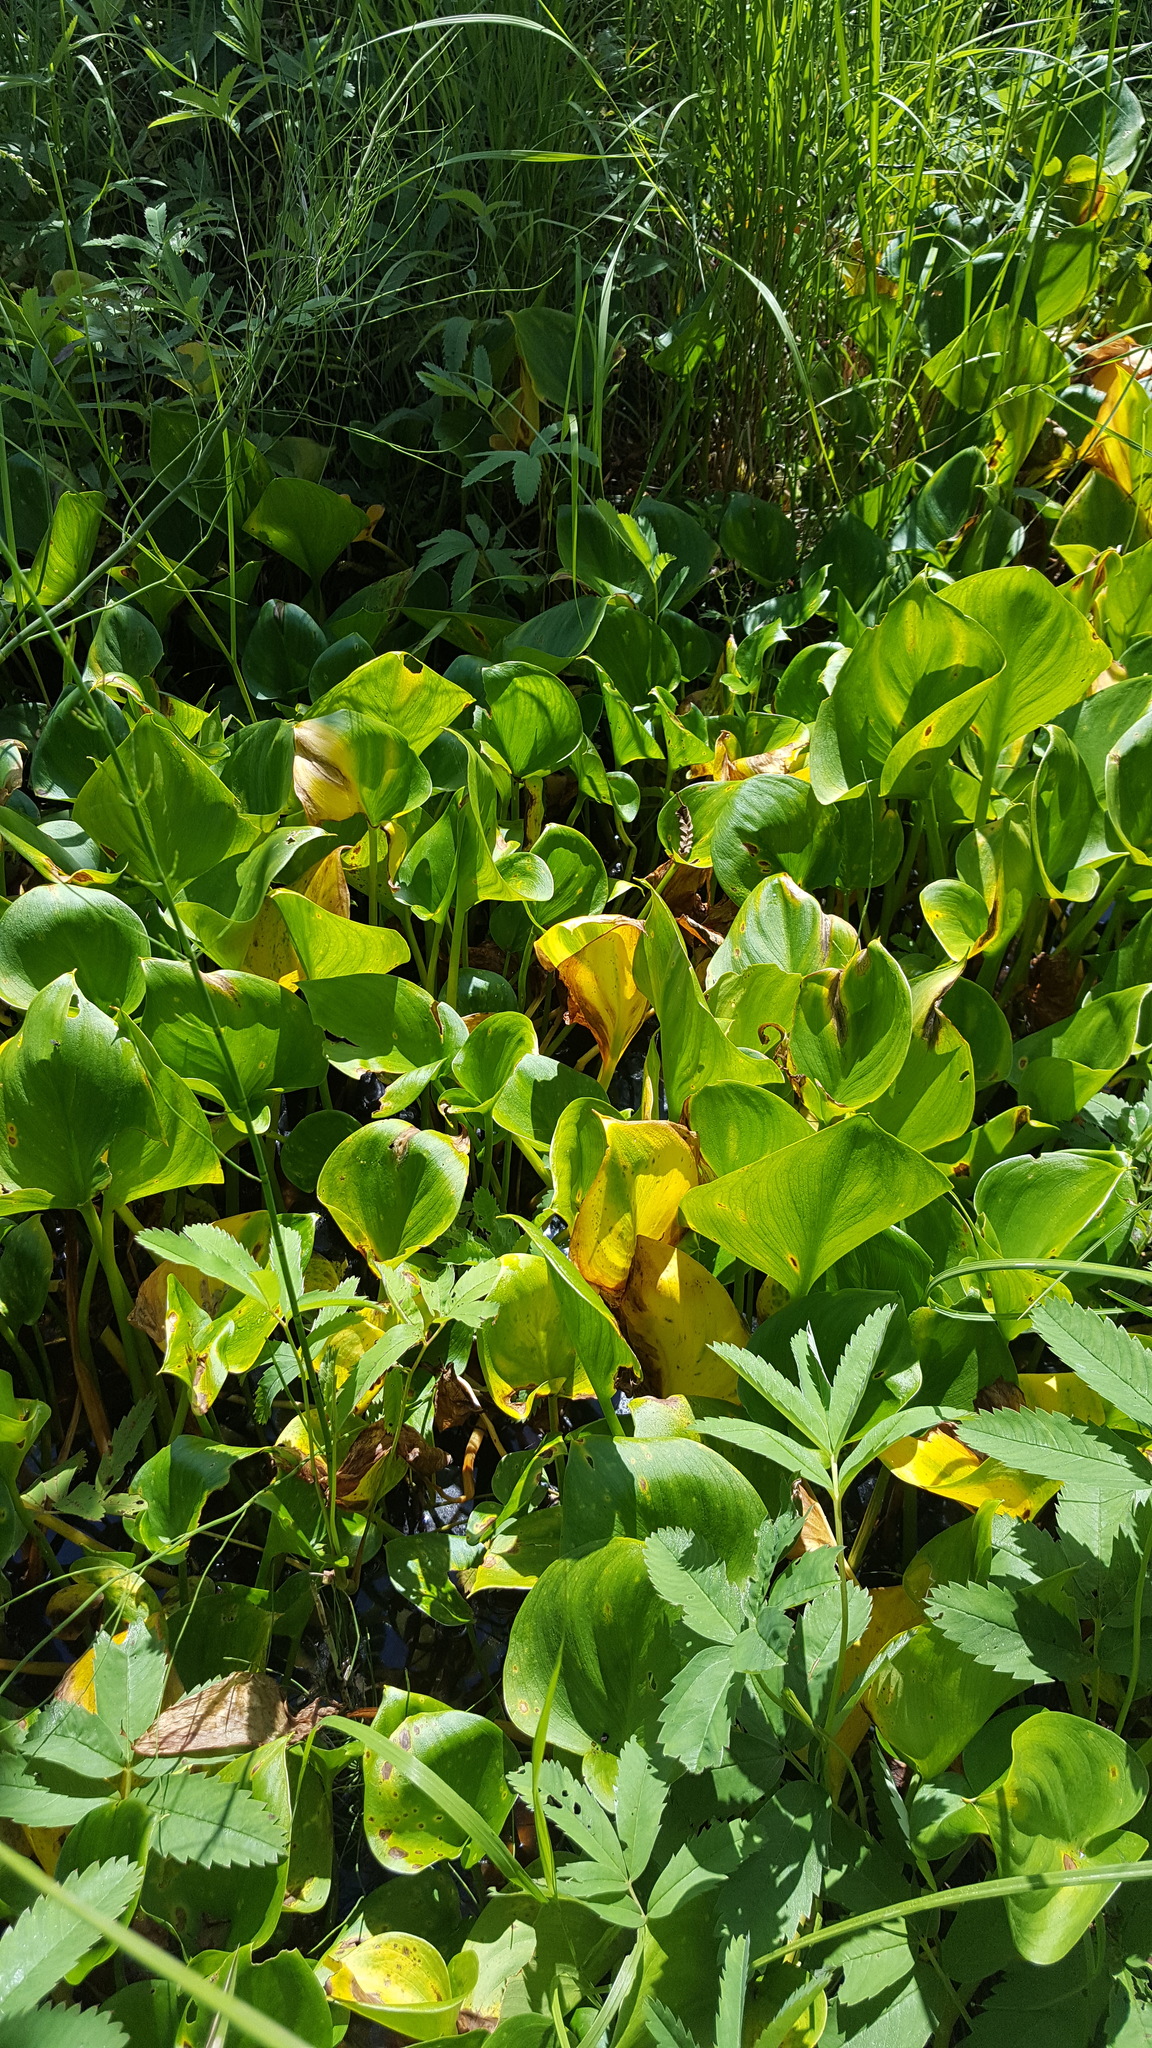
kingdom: Plantae
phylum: Tracheophyta
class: Liliopsida
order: Alismatales
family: Araceae
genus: Calla
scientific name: Calla palustris
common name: Bog arum
